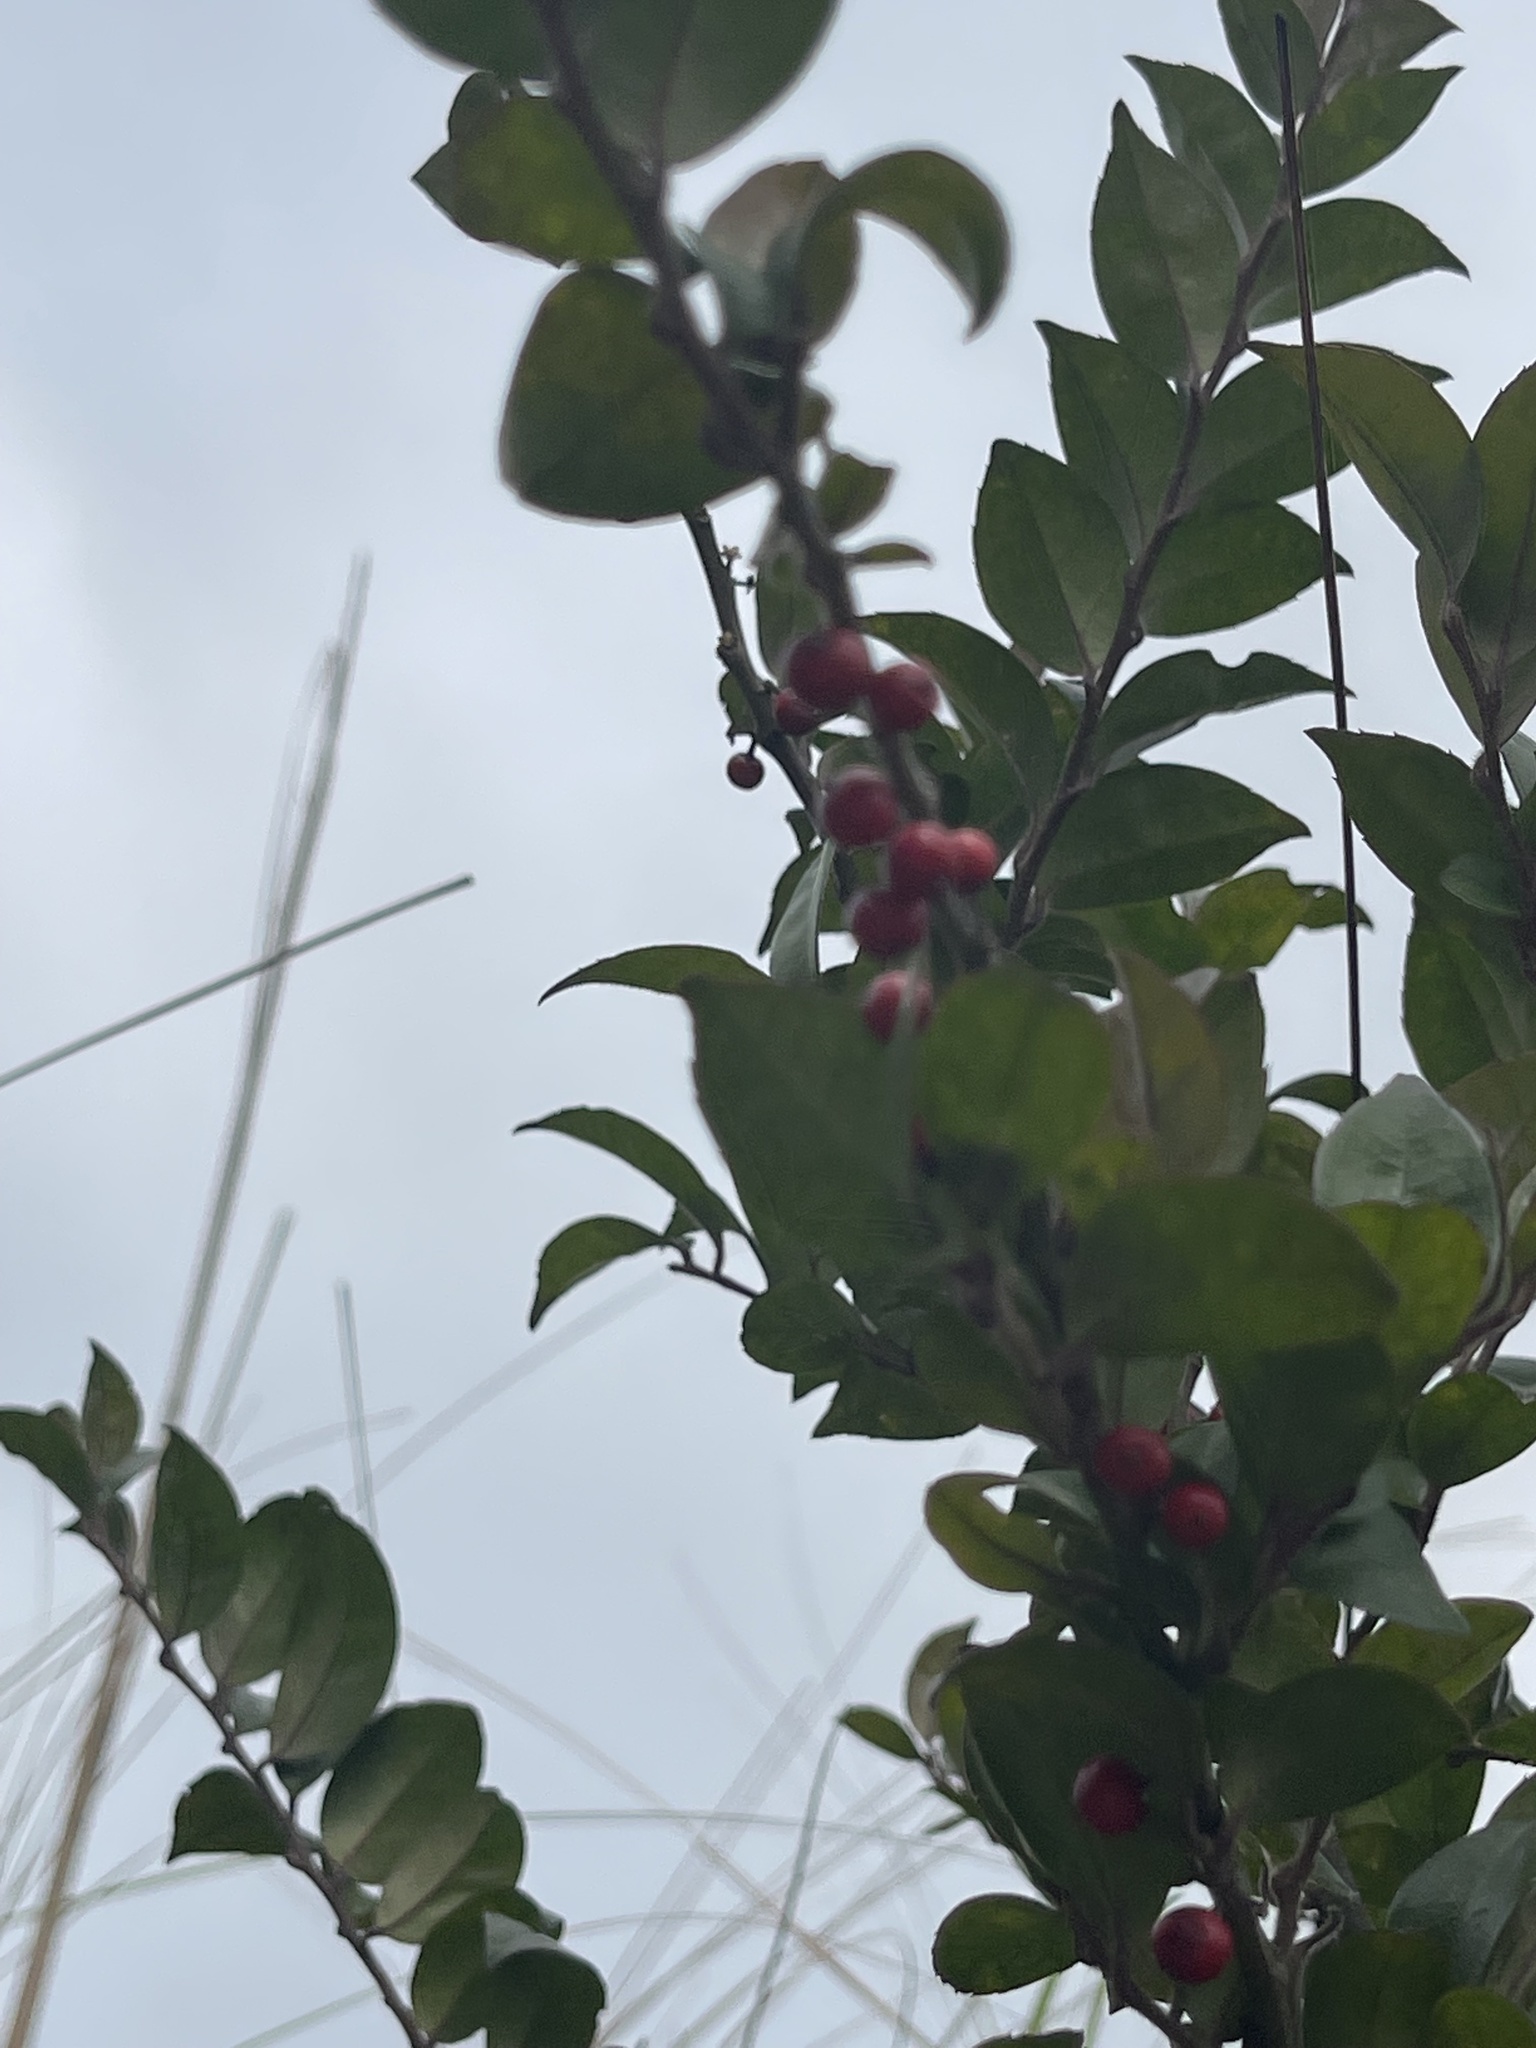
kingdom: Plantae
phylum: Tracheophyta
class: Magnoliopsida
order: Aquifoliales
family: Aquifoliaceae
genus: Ilex
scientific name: Ilex pubescens
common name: Pubescent holly
